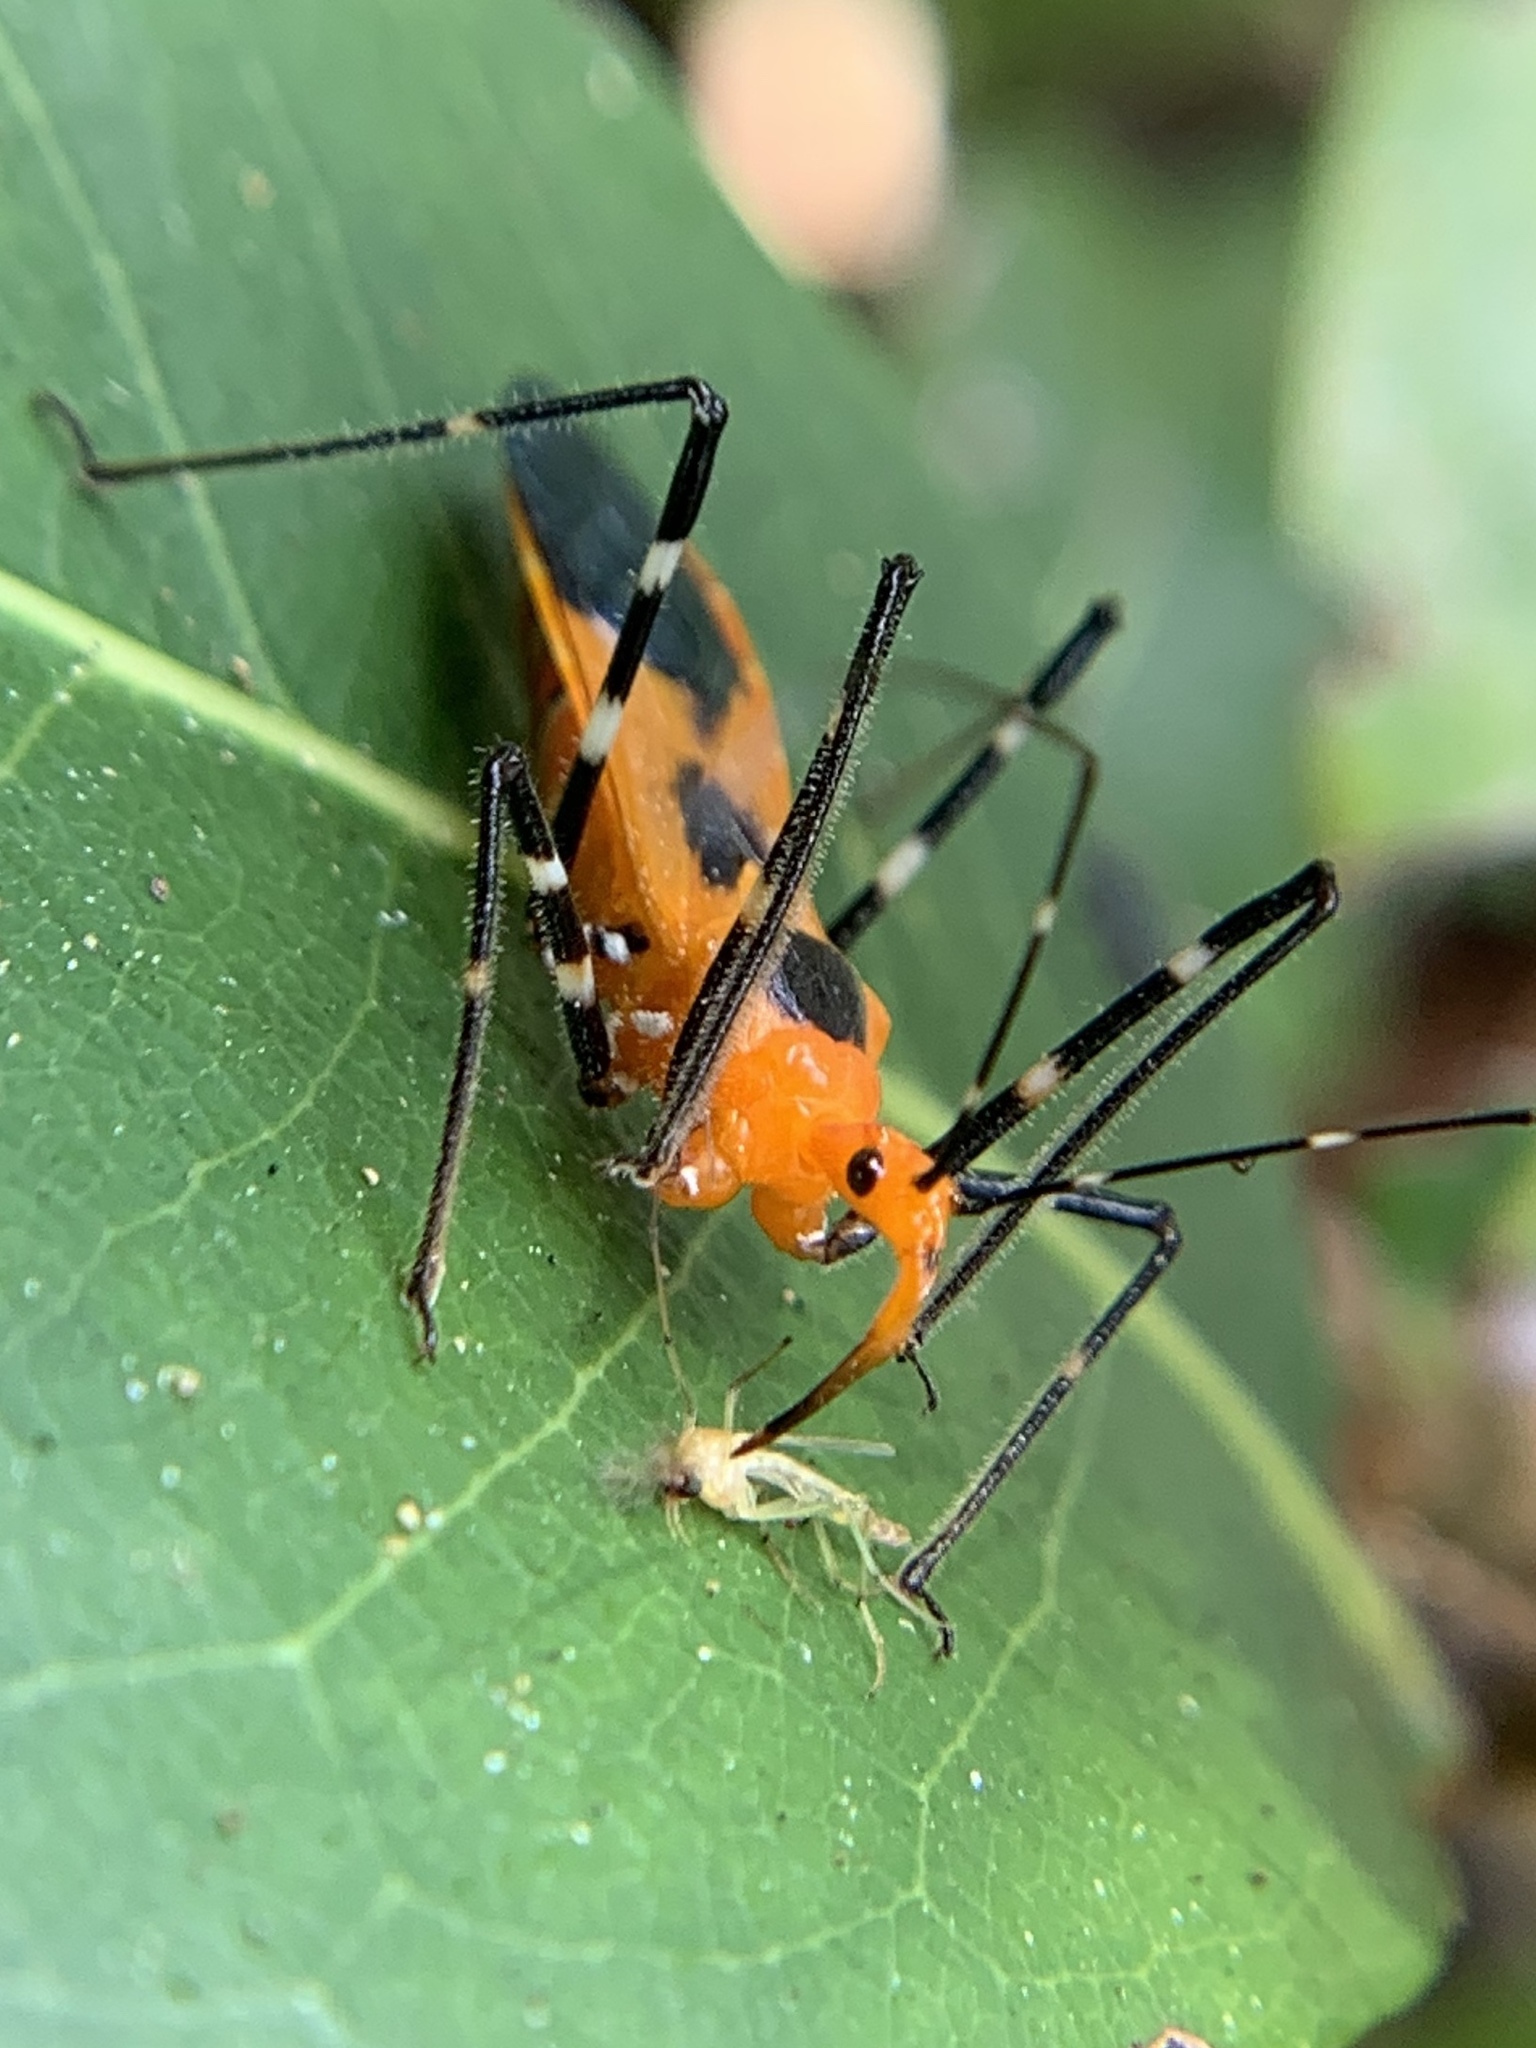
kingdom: Animalia
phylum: Arthropoda
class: Insecta
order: Hemiptera
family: Reduviidae
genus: Zelus
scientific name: Zelus longipes
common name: Milkweed assassin bug
